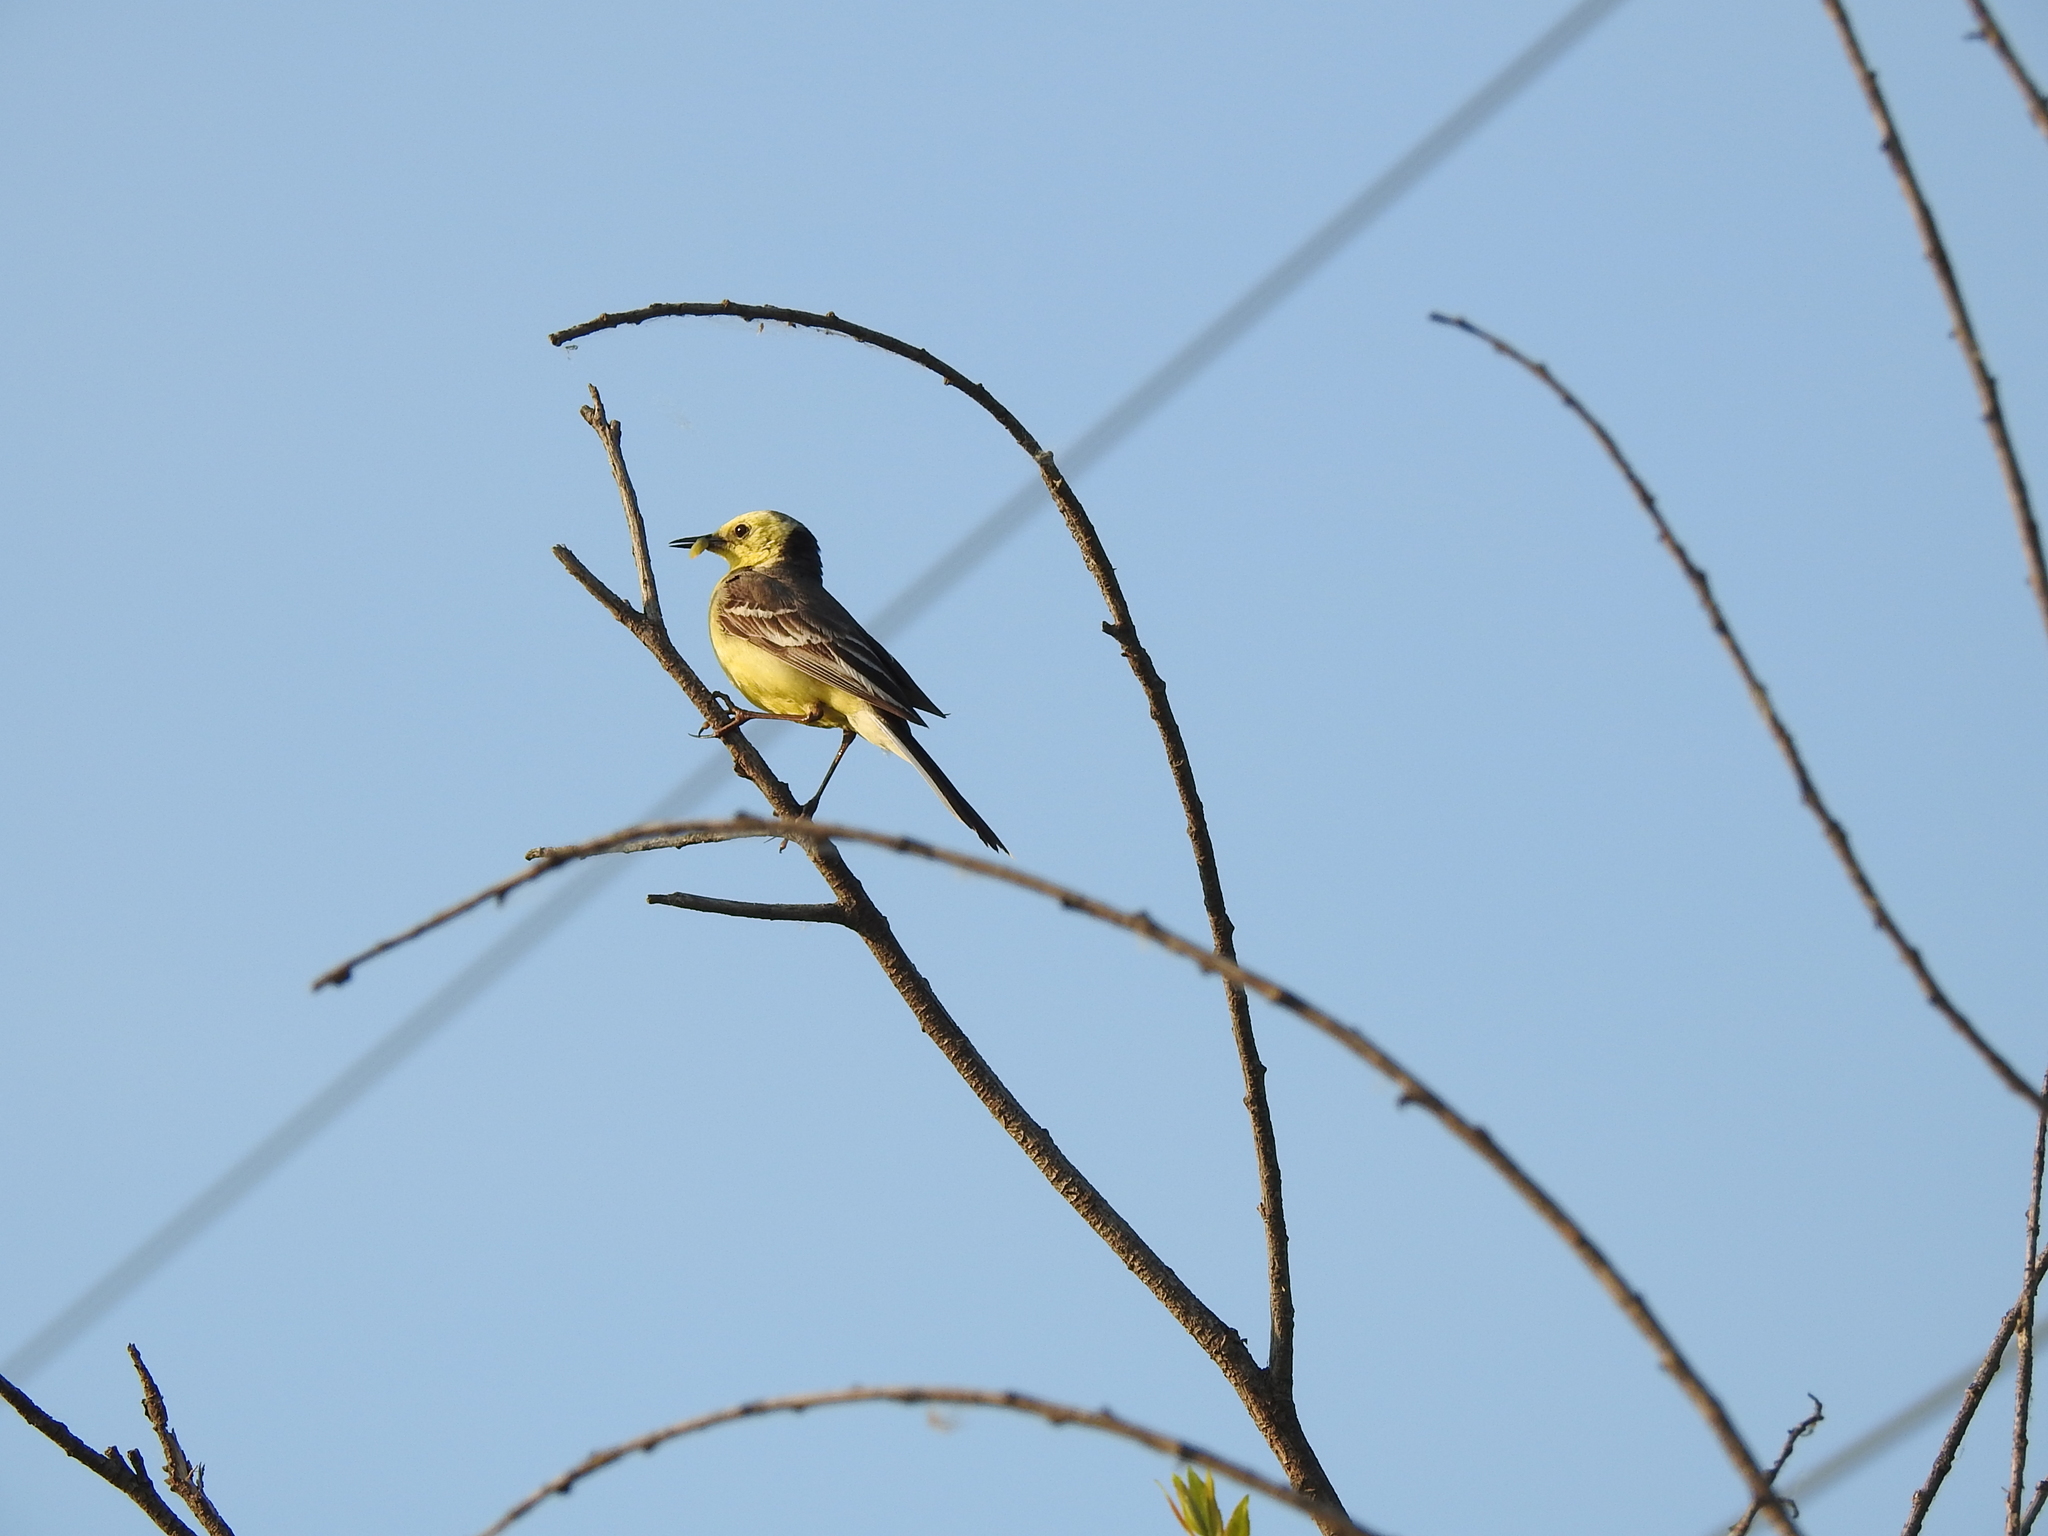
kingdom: Animalia
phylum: Chordata
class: Aves
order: Passeriformes
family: Motacillidae
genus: Motacilla
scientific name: Motacilla citreola
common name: Citrine wagtail
